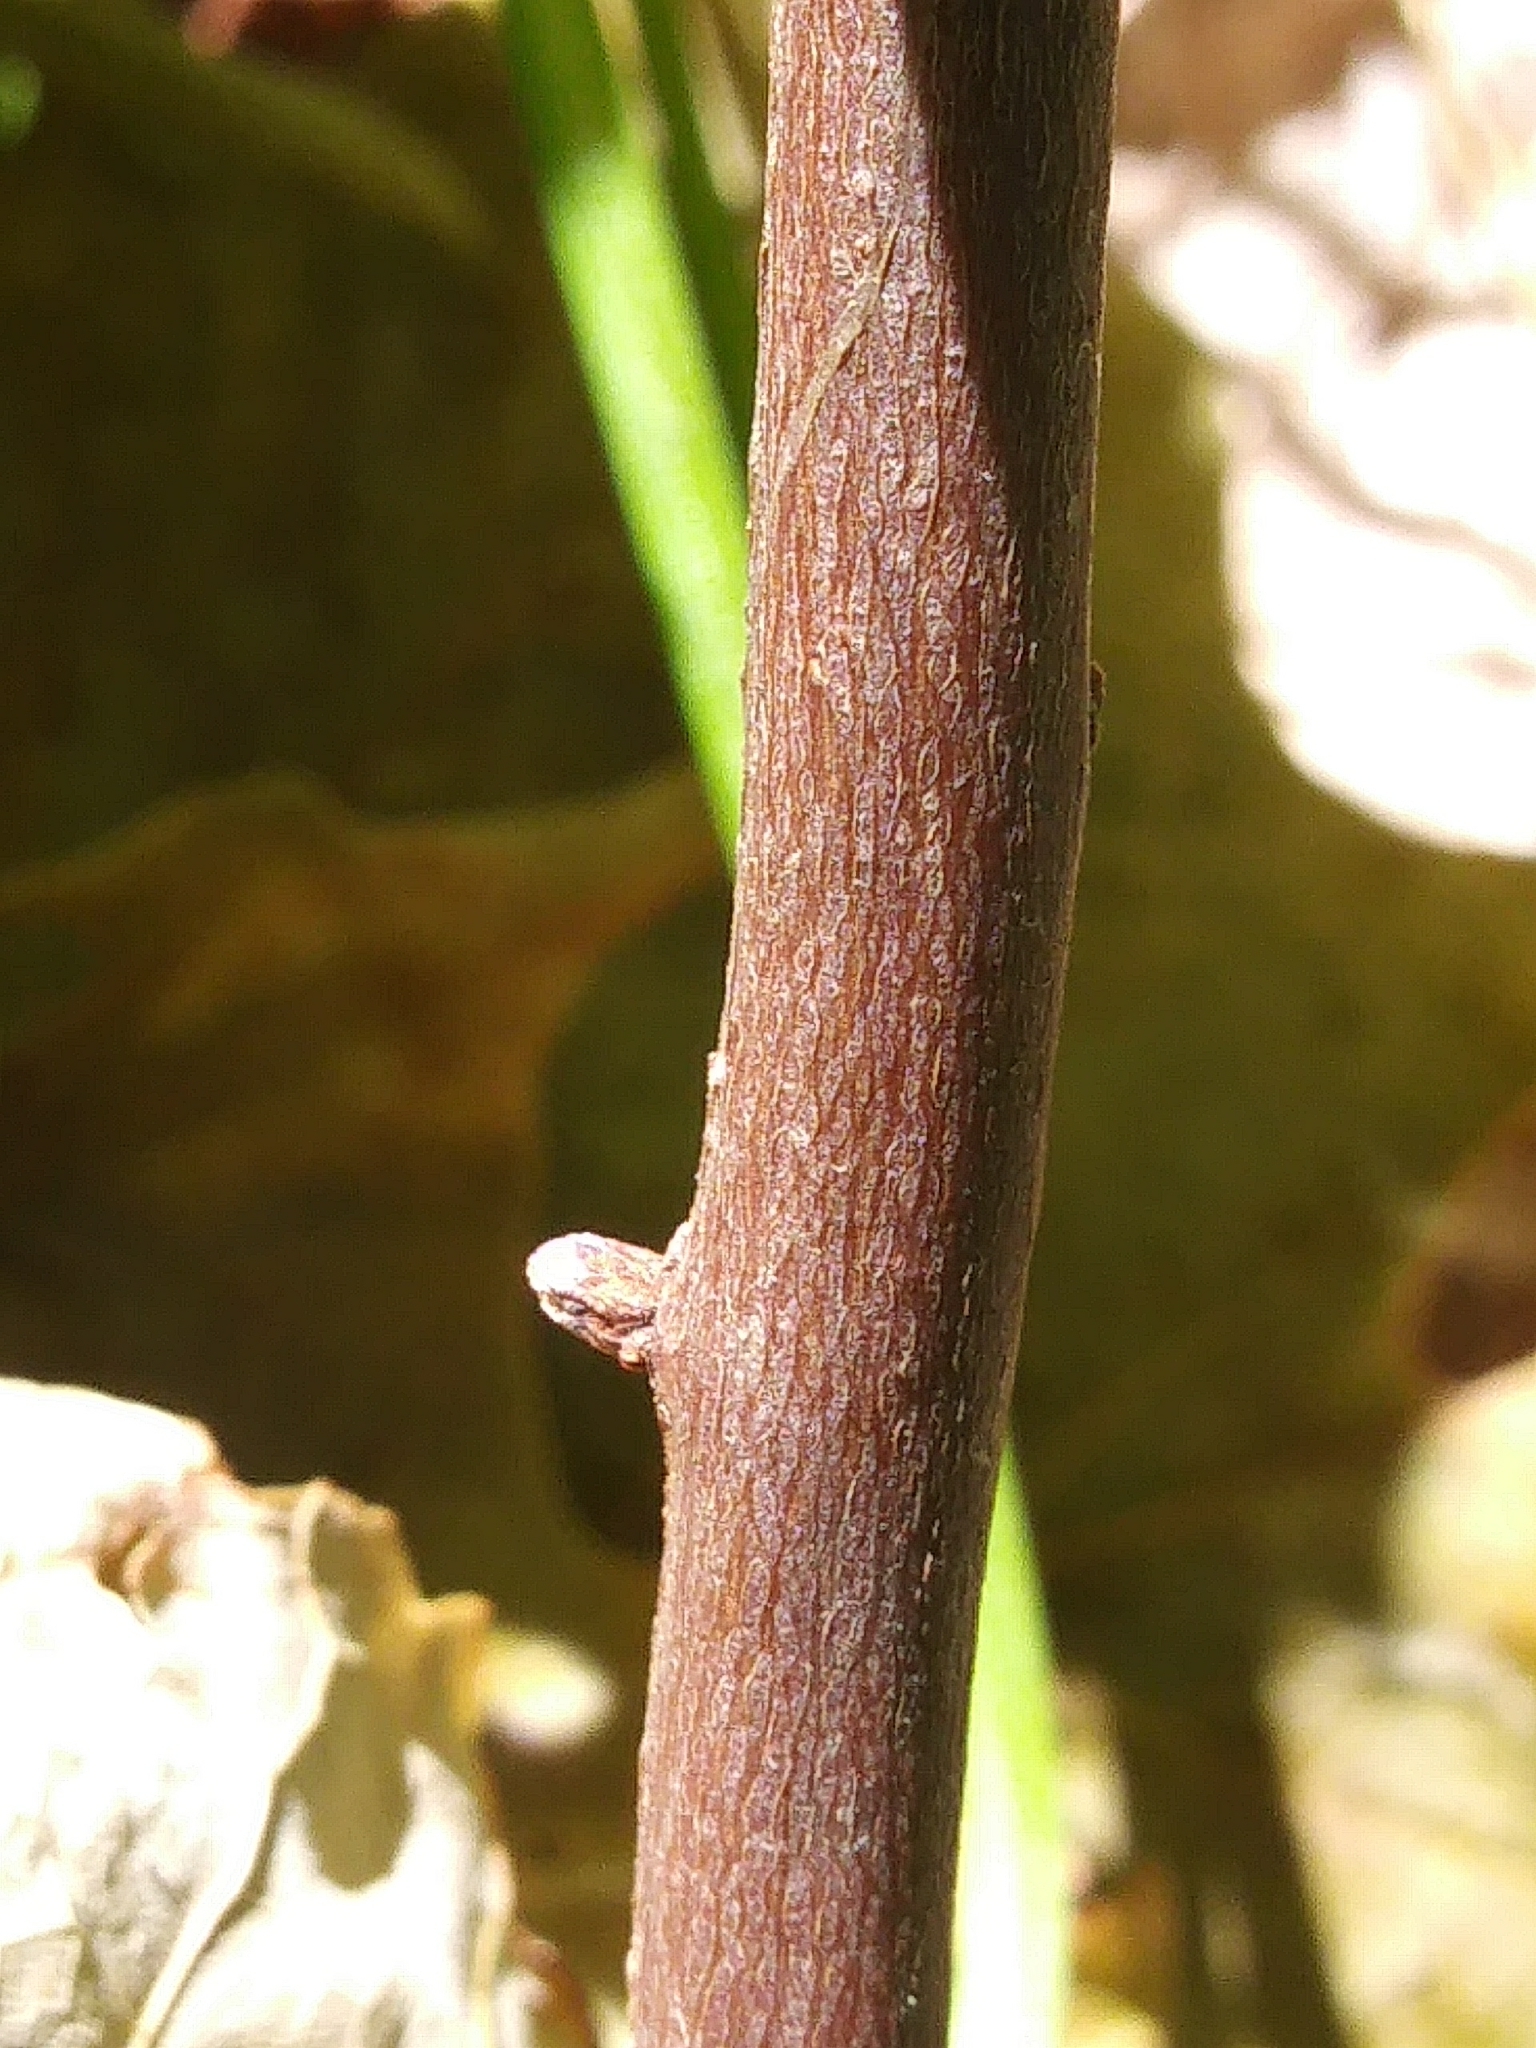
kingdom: Plantae
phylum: Tracheophyta
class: Magnoliopsida
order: Rosales
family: Rosaceae
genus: Spiraea
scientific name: Spiraea tomentosa
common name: Hardhack
